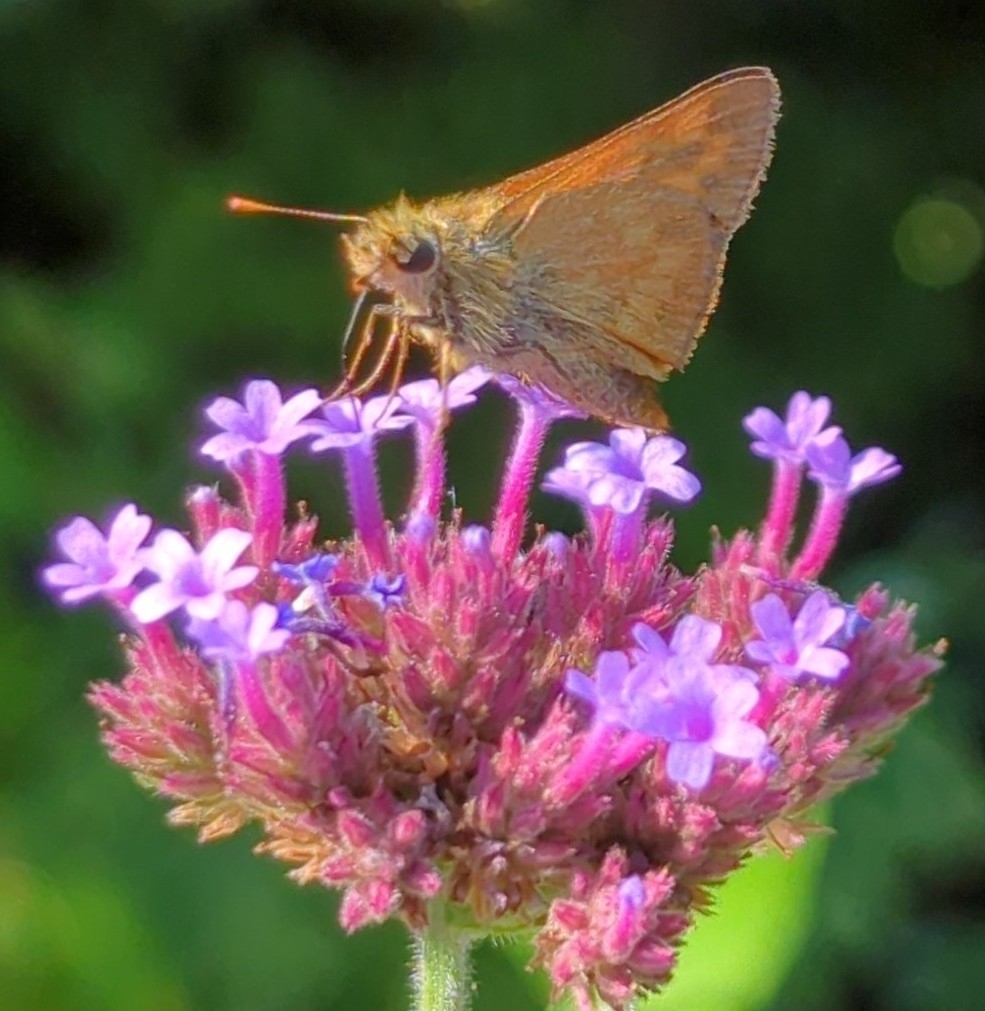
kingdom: Animalia
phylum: Arthropoda
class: Insecta
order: Lepidoptera
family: Hesperiidae
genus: Ochlodes
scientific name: Ochlodes sylvanoides
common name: Woodland skipper
